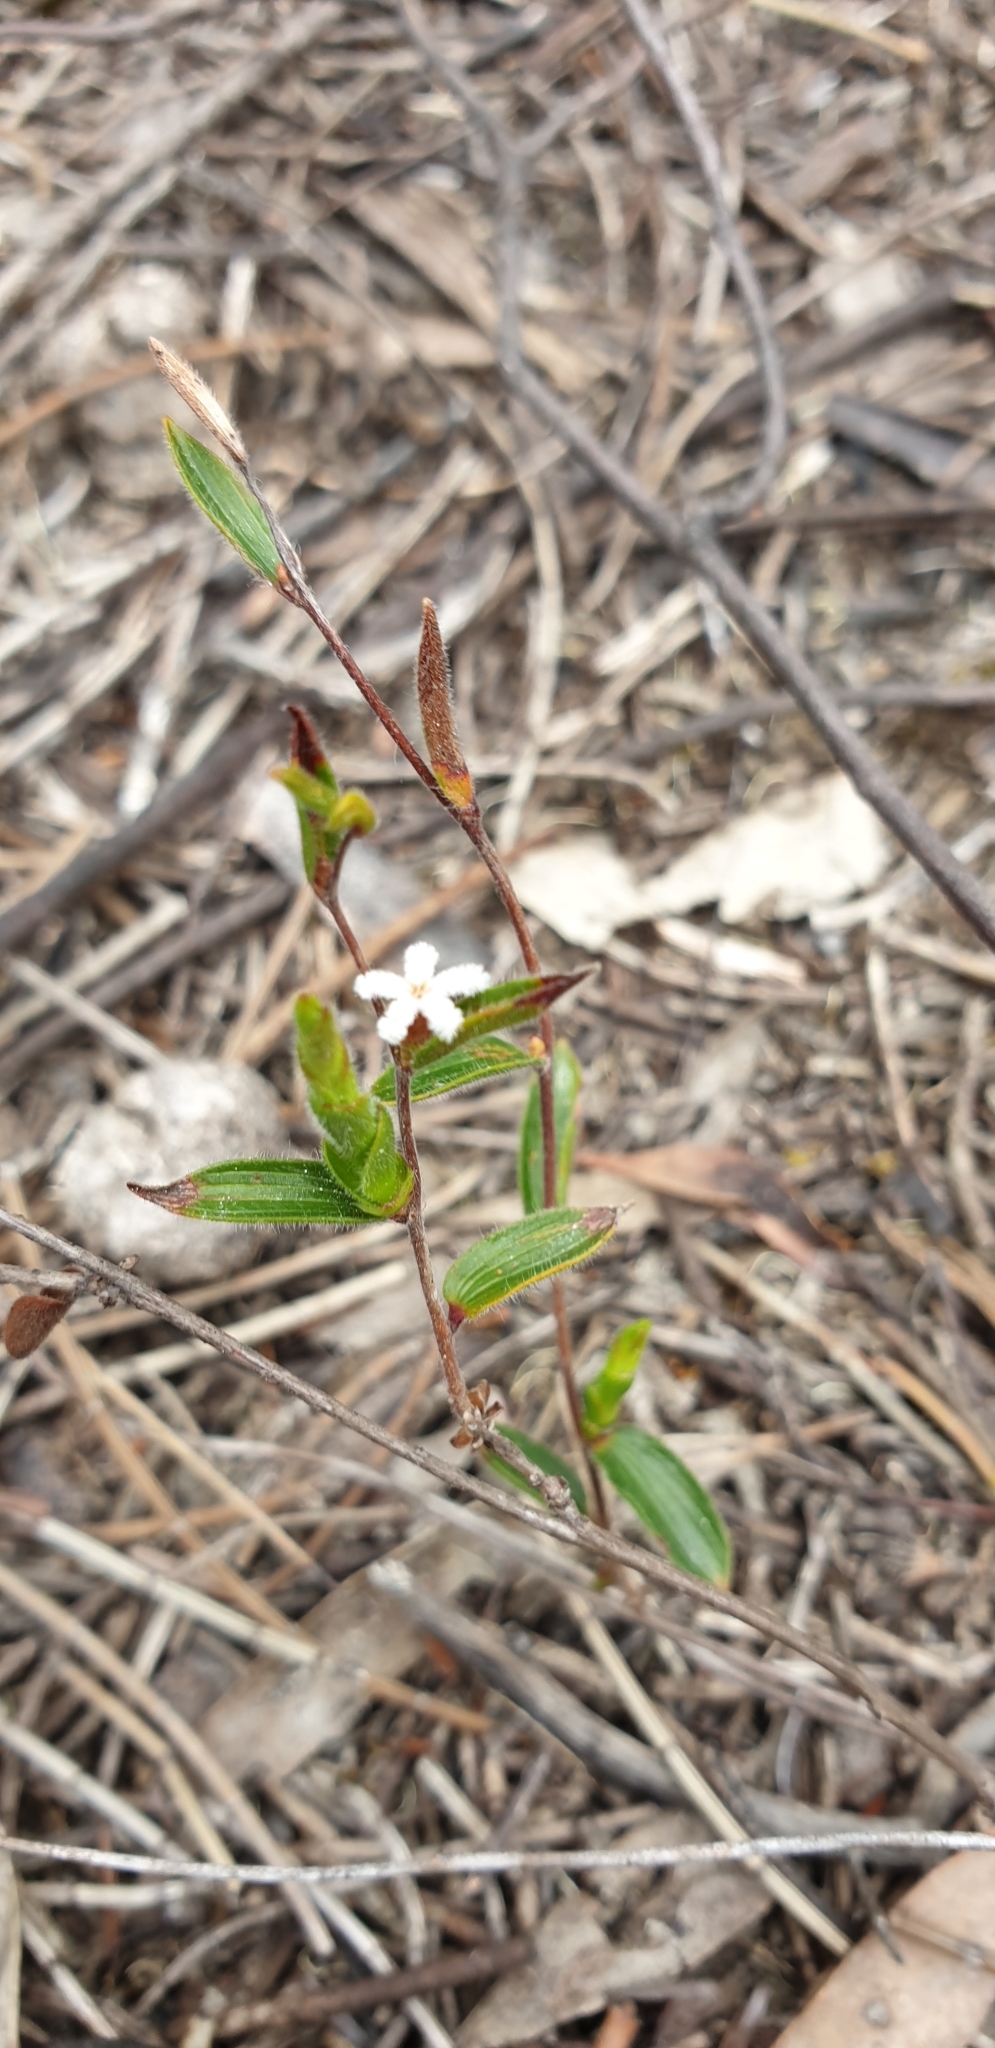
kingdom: Plantae
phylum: Tracheophyta
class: Magnoliopsida
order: Ericales
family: Ericaceae
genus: Leucopogon
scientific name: Leucopogon concurvus
